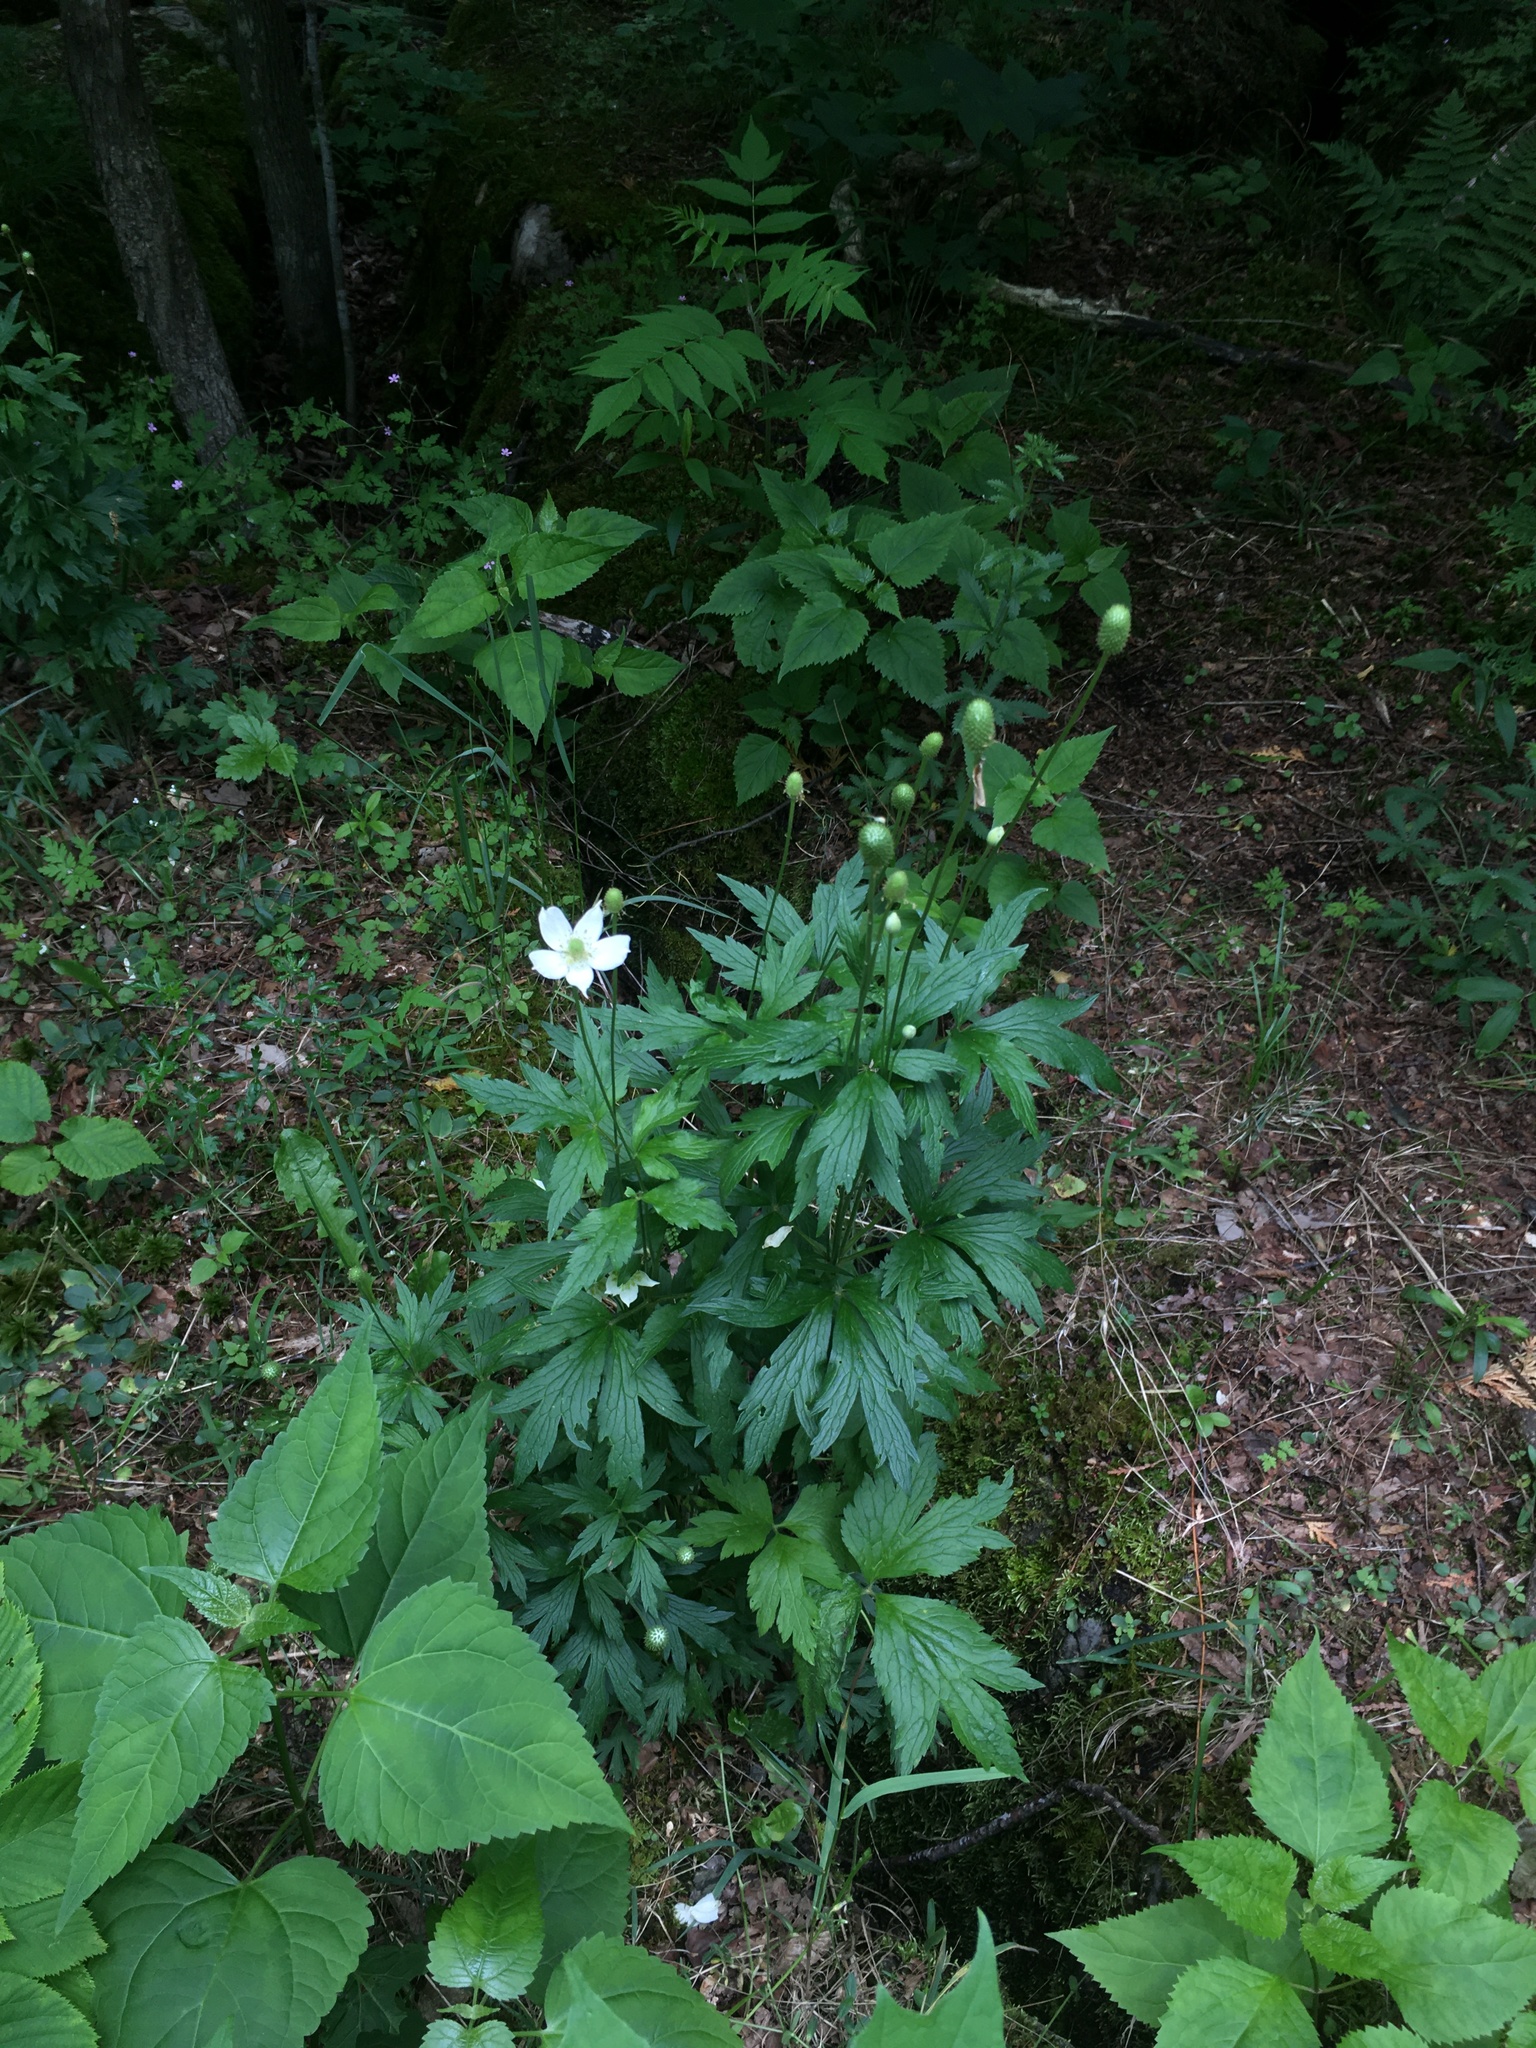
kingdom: Plantae
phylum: Tracheophyta
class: Magnoliopsida
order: Ranunculales
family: Ranunculaceae
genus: Anemone
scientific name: Anemone virginiana
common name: Tall anemone
